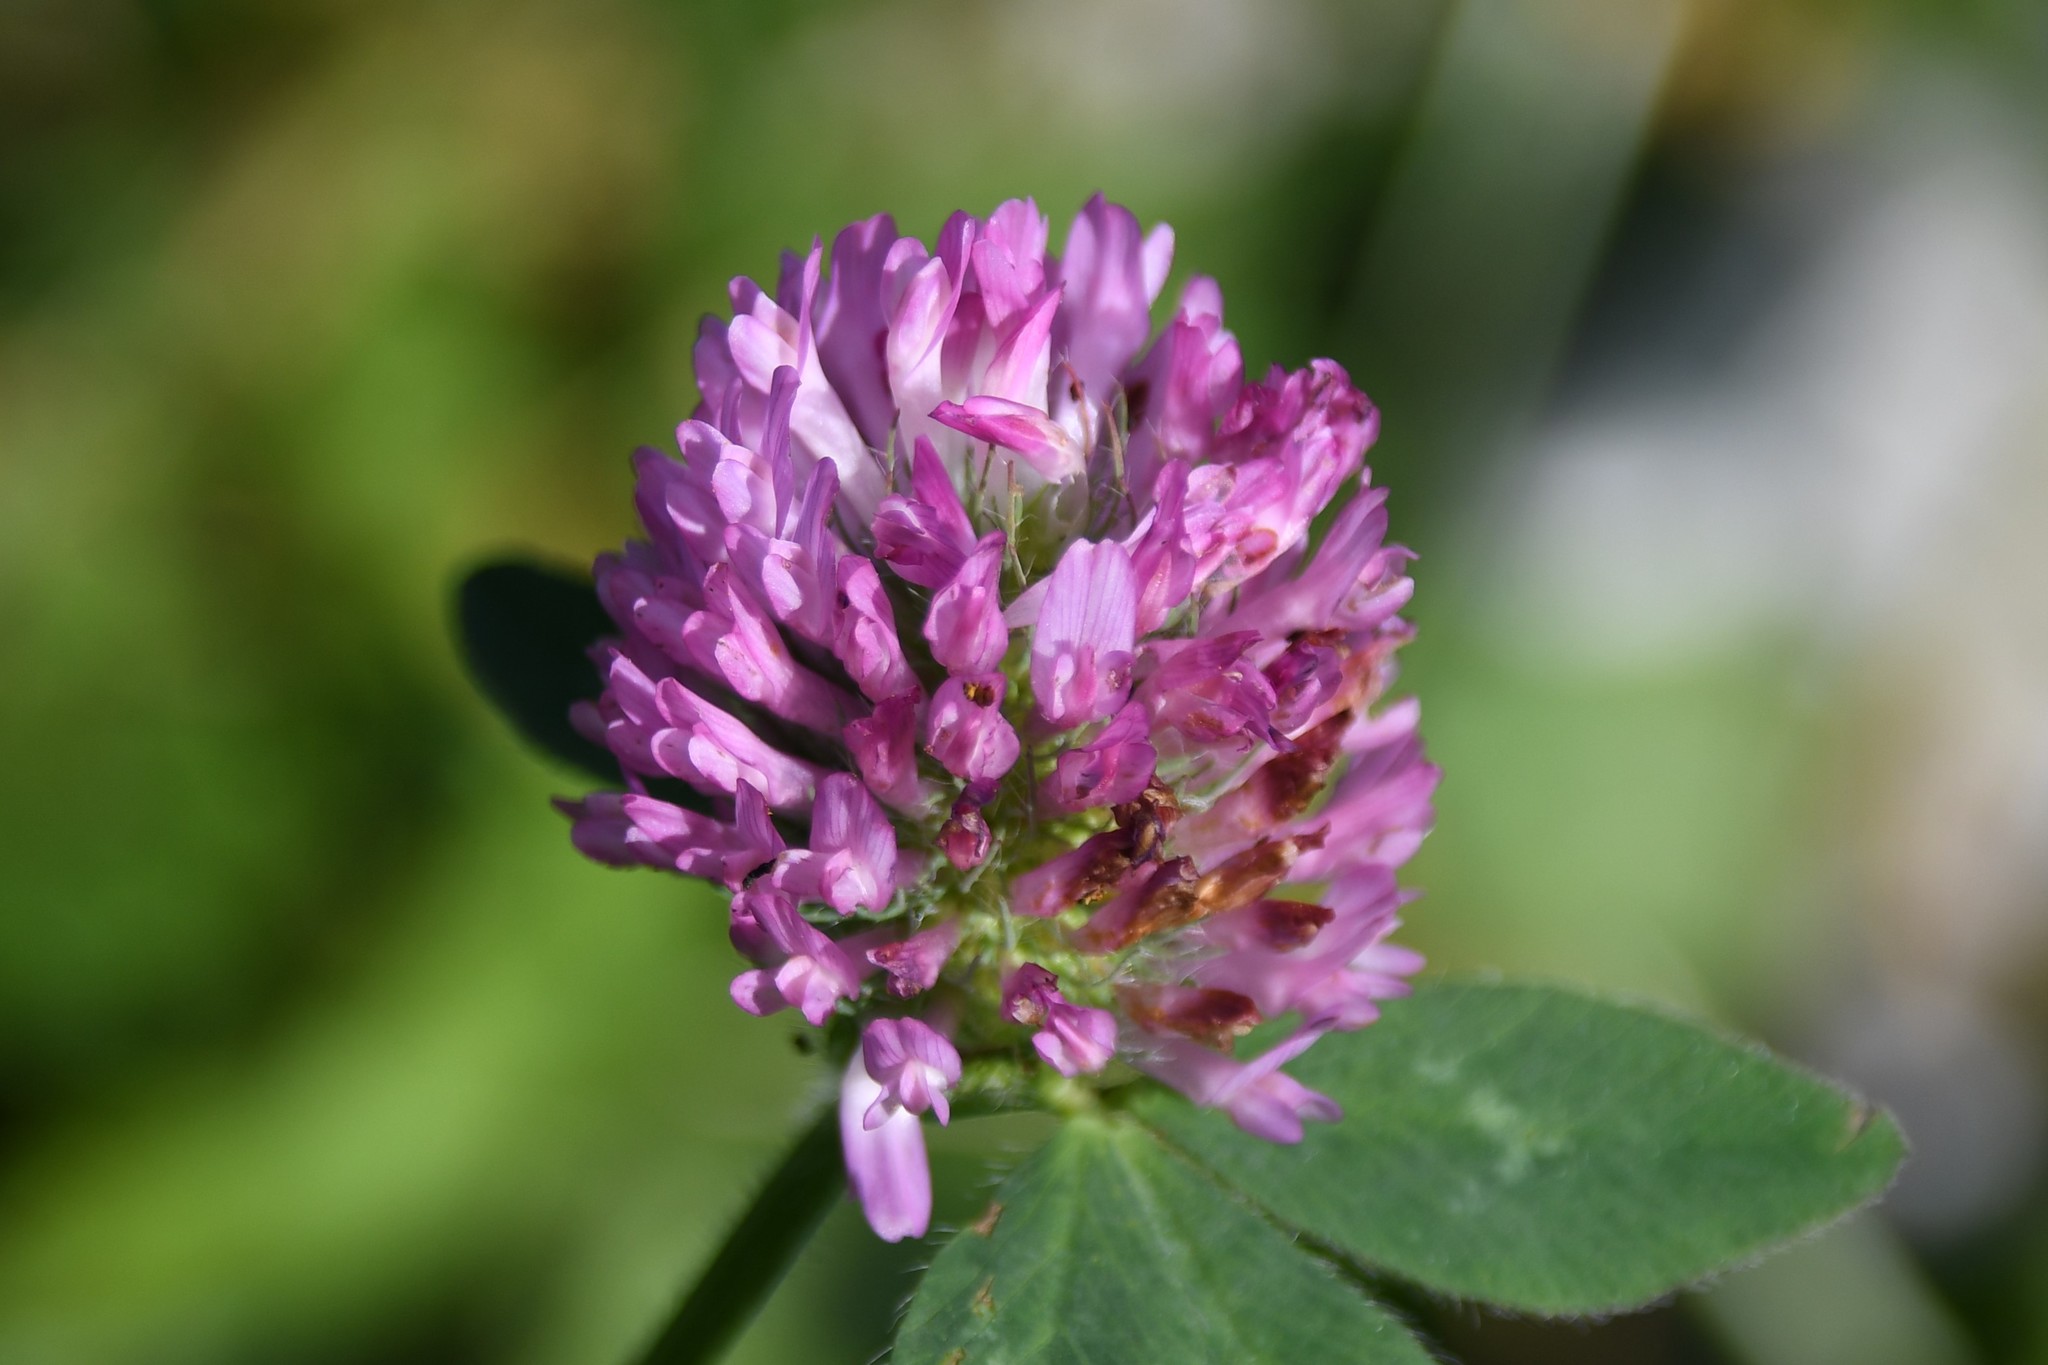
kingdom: Plantae
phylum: Tracheophyta
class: Magnoliopsida
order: Fabales
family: Fabaceae
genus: Trifolium
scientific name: Trifolium pratense
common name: Red clover
